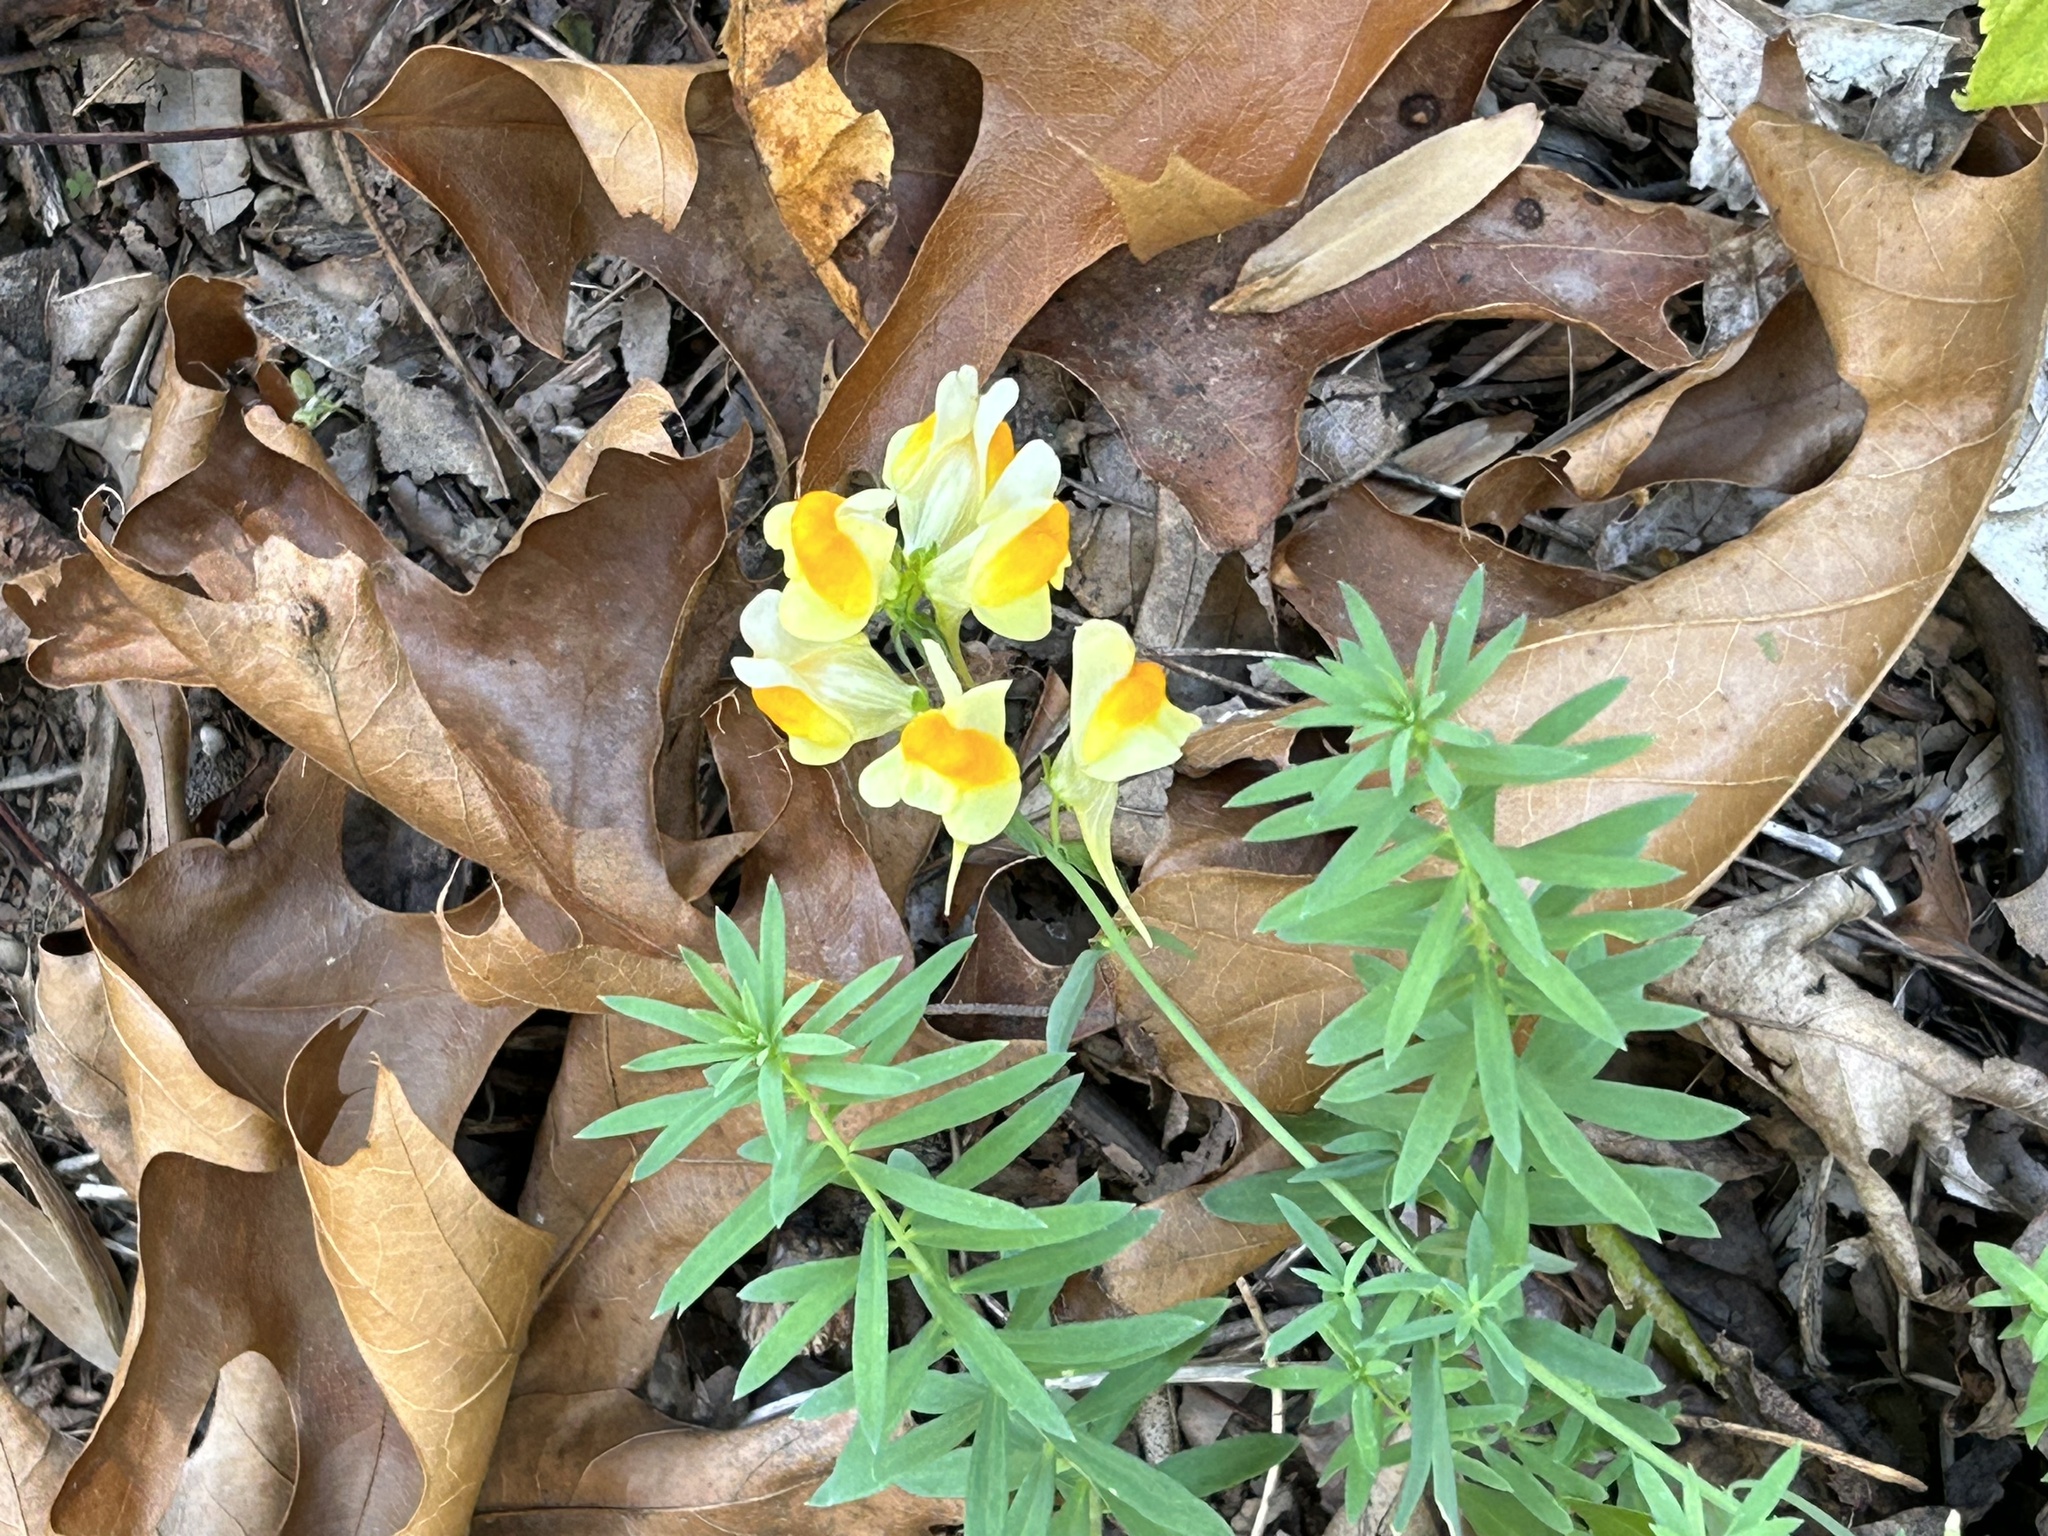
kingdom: Plantae
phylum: Tracheophyta
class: Magnoliopsida
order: Lamiales
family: Plantaginaceae
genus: Linaria
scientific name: Linaria vulgaris
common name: Butter and eggs
